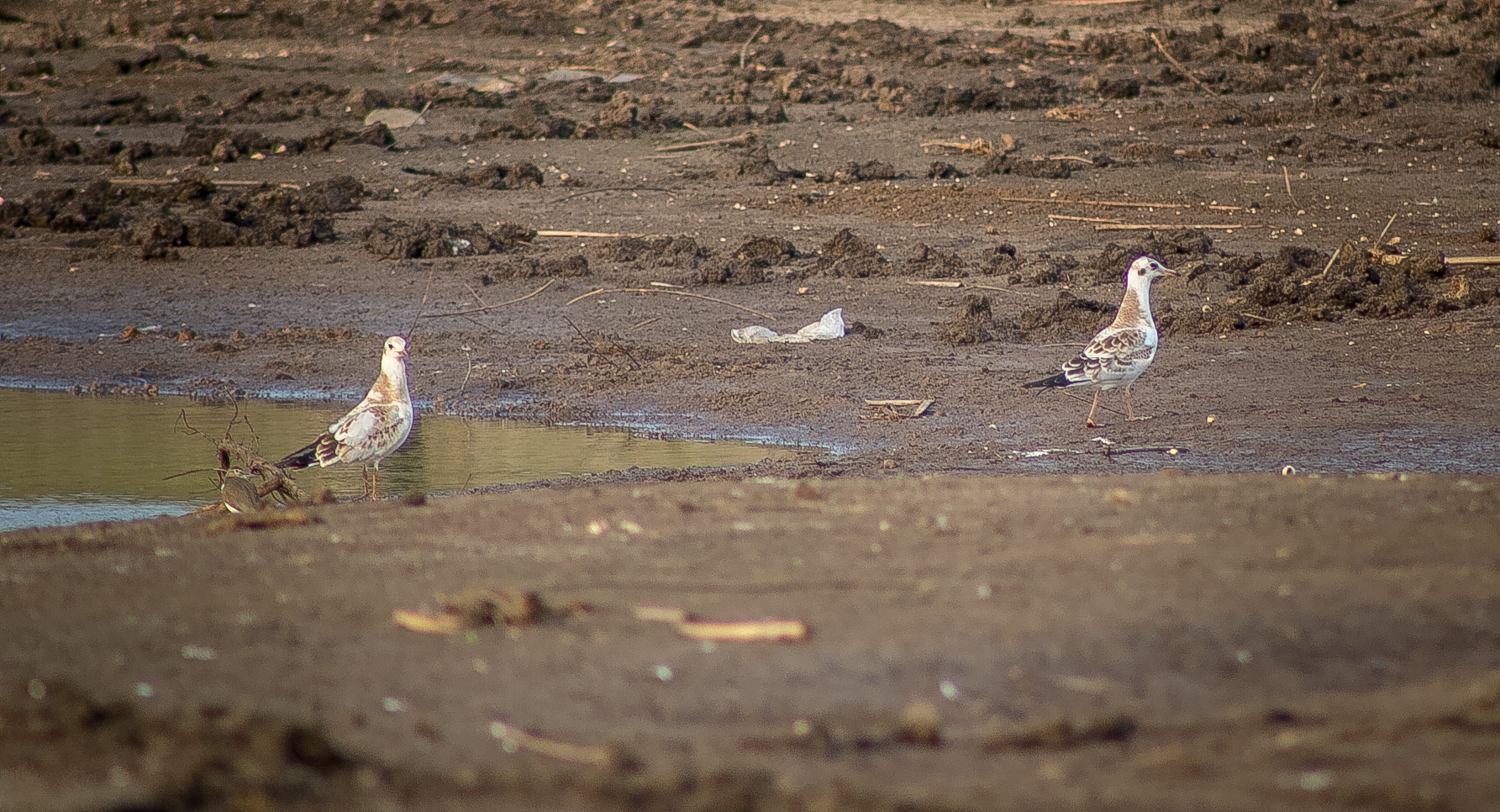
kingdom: Animalia
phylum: Chordata
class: Aves
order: Charadriiformes
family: Laridae
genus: Chroicocephalus
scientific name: Chroicocephalus ridibundus
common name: Black-headed gull
